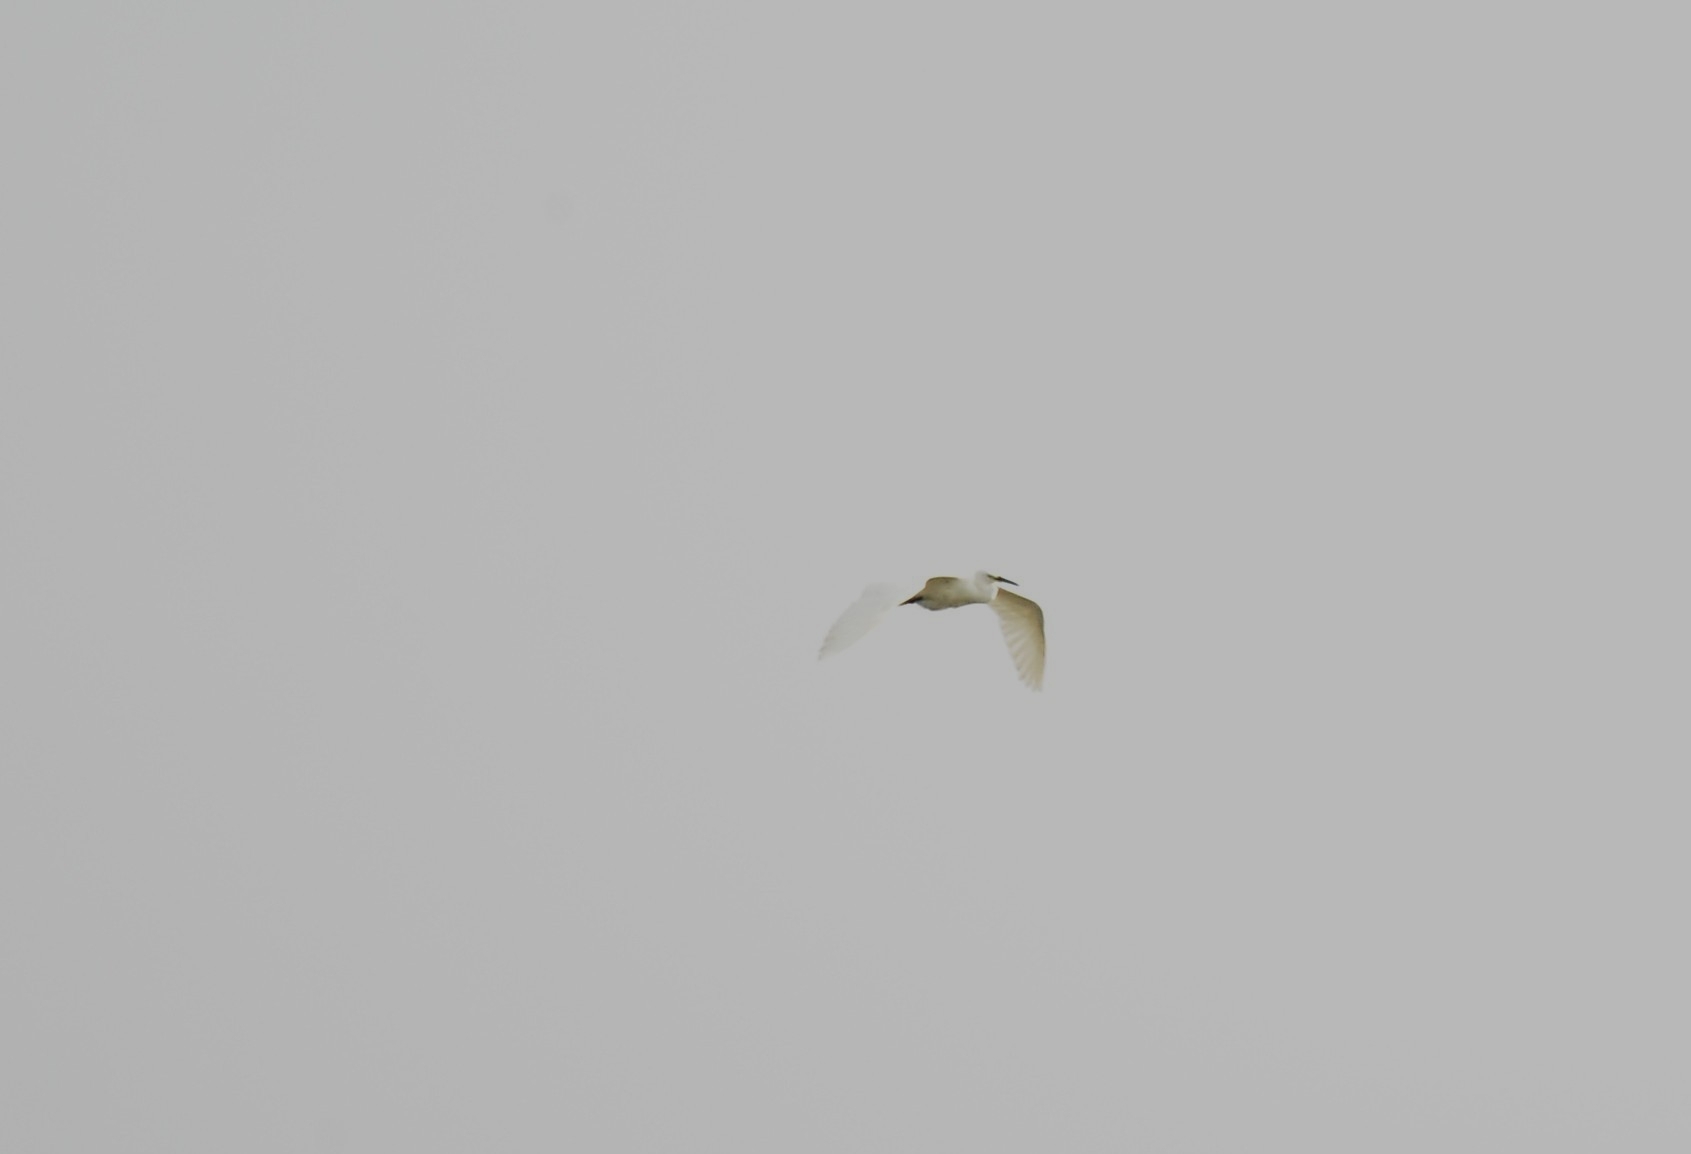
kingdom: Animalia
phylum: Chordata
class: Aves
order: Pelecaniformes
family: Ardeidae
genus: Egretta
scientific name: Egretta garzetta
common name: Little egret
